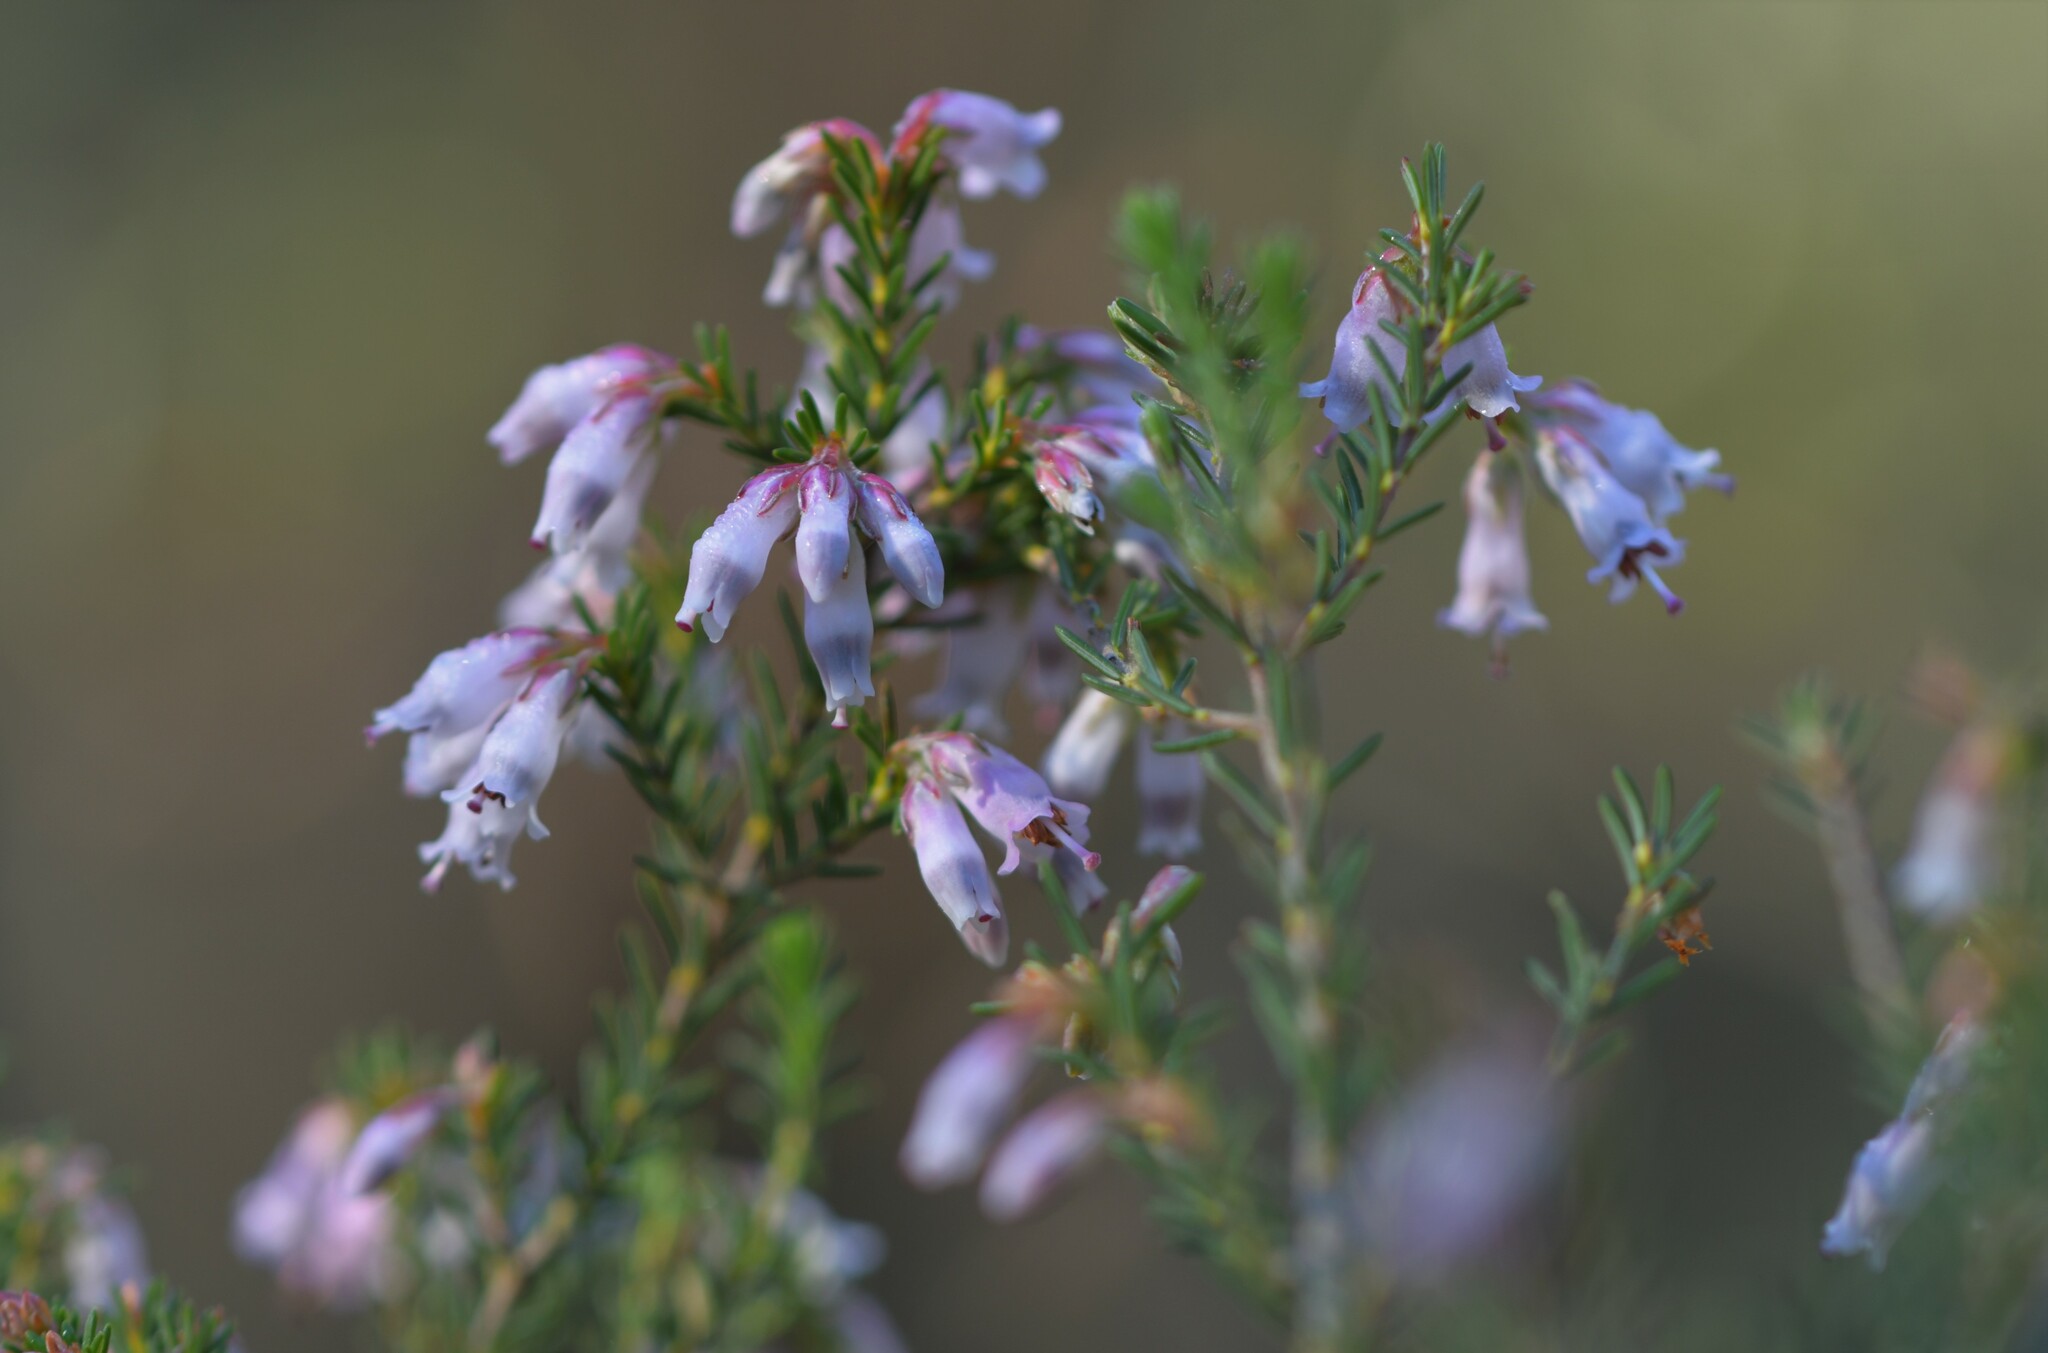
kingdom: Plantae
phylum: Tracheophyta
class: Magnoliopsida
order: Ericales
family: Ericaceae
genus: Erica
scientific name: Erica australis
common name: Spanish heath
